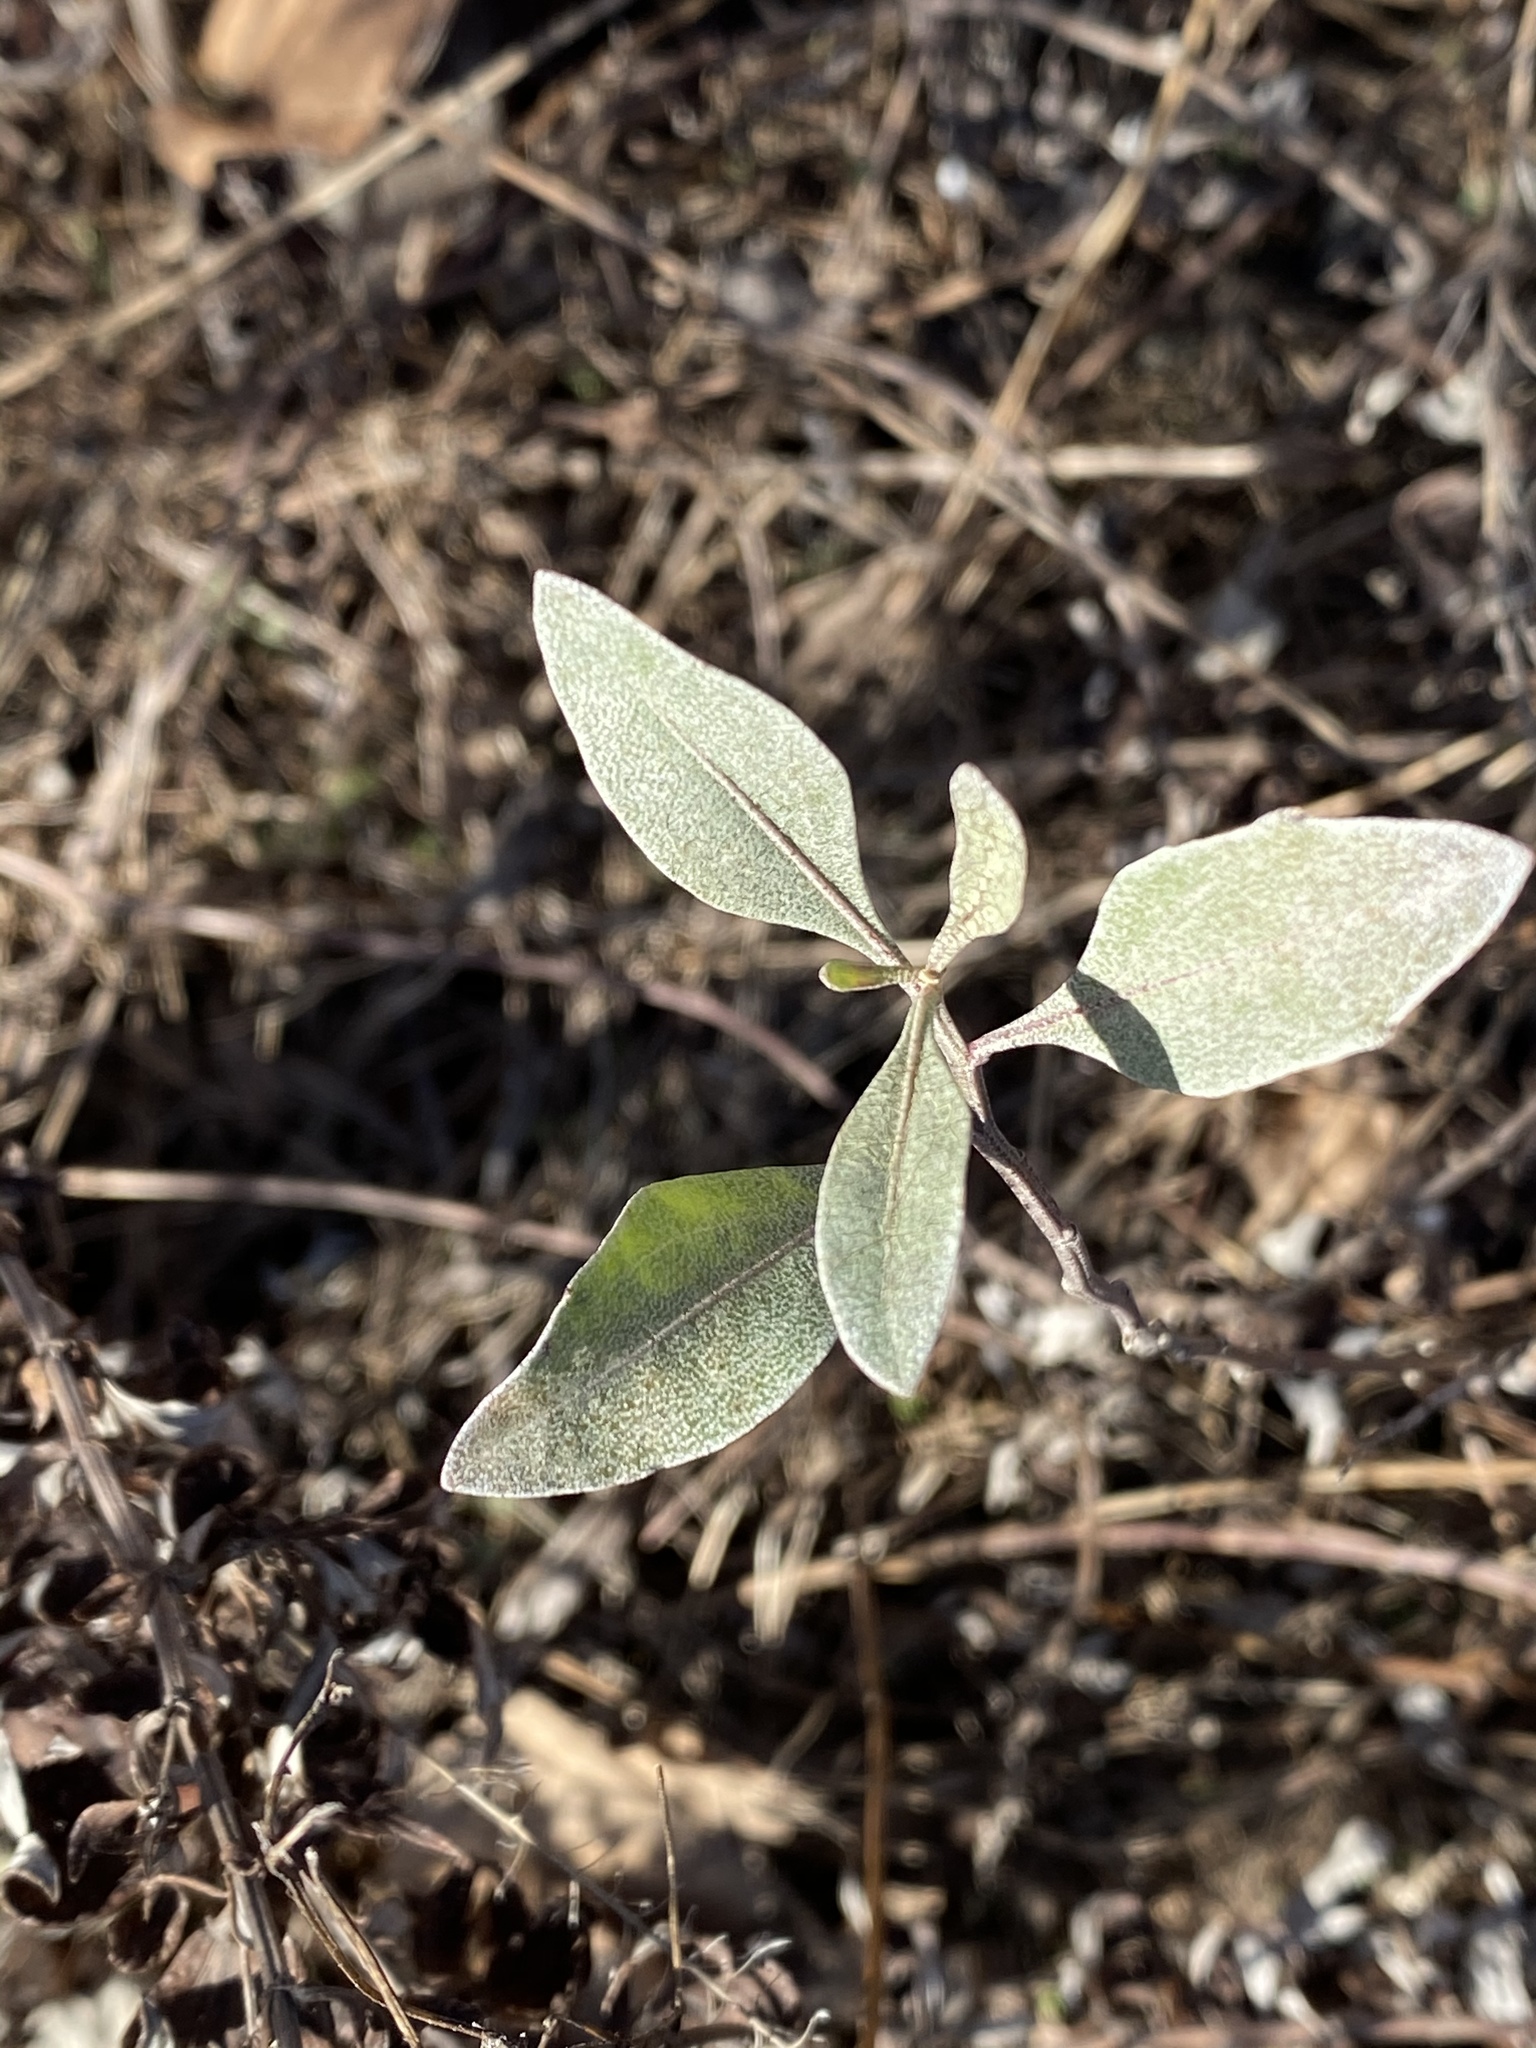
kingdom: Plantae
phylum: Tracheophyta
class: Magnoliopsida
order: Asterales
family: Asteraceae
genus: Baccharis
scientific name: Baccharis halimifolia
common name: Eastern baccharis
